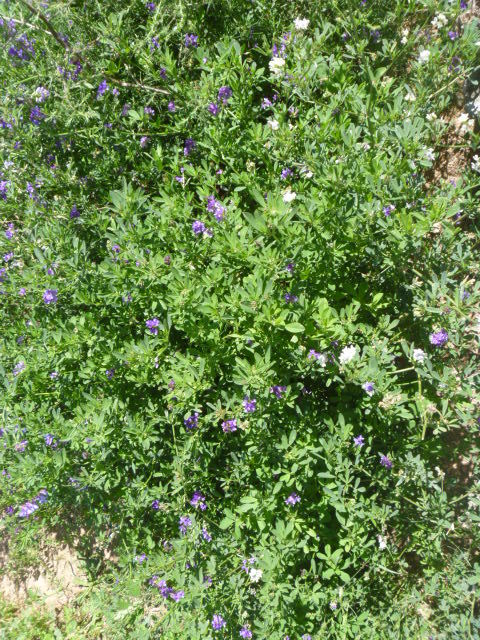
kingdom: Plantae
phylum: Tracheophyta
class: Magnoliopsida
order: Fabales
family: Fabaceae
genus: Medicago
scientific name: Medicago sativa
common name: Alfalfa
